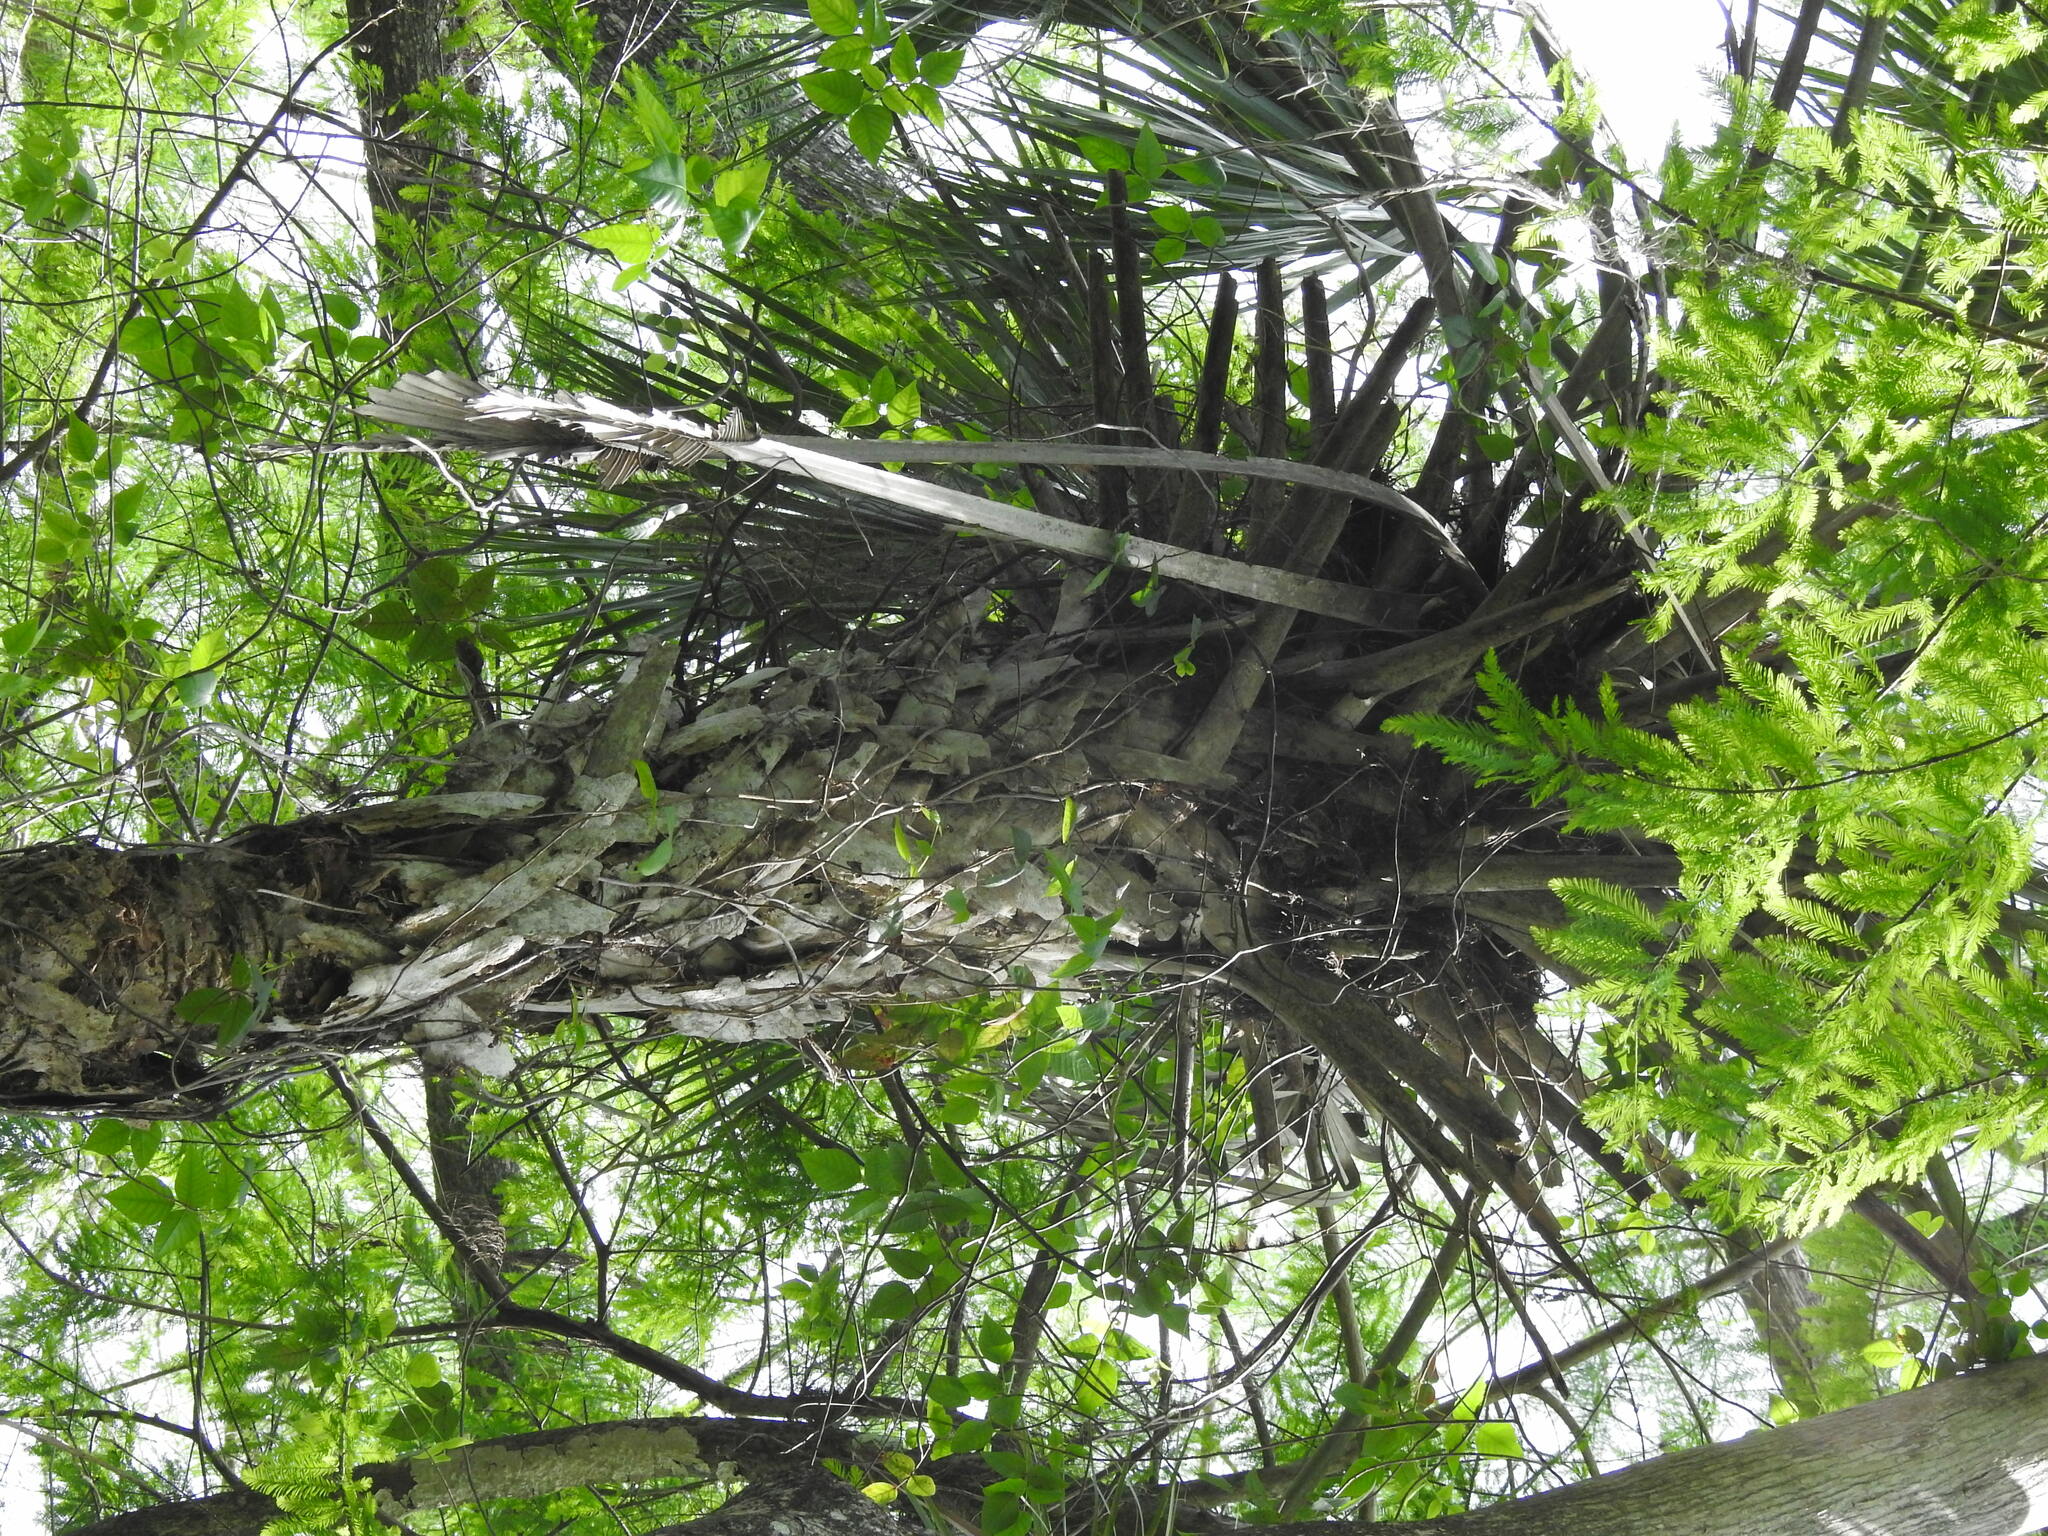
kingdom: Plantae
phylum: Tracheophyta
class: Liliopsida
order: Arecales
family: Arecaceae
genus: Sabal
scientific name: Sabal palmetto
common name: Blue palmetto
